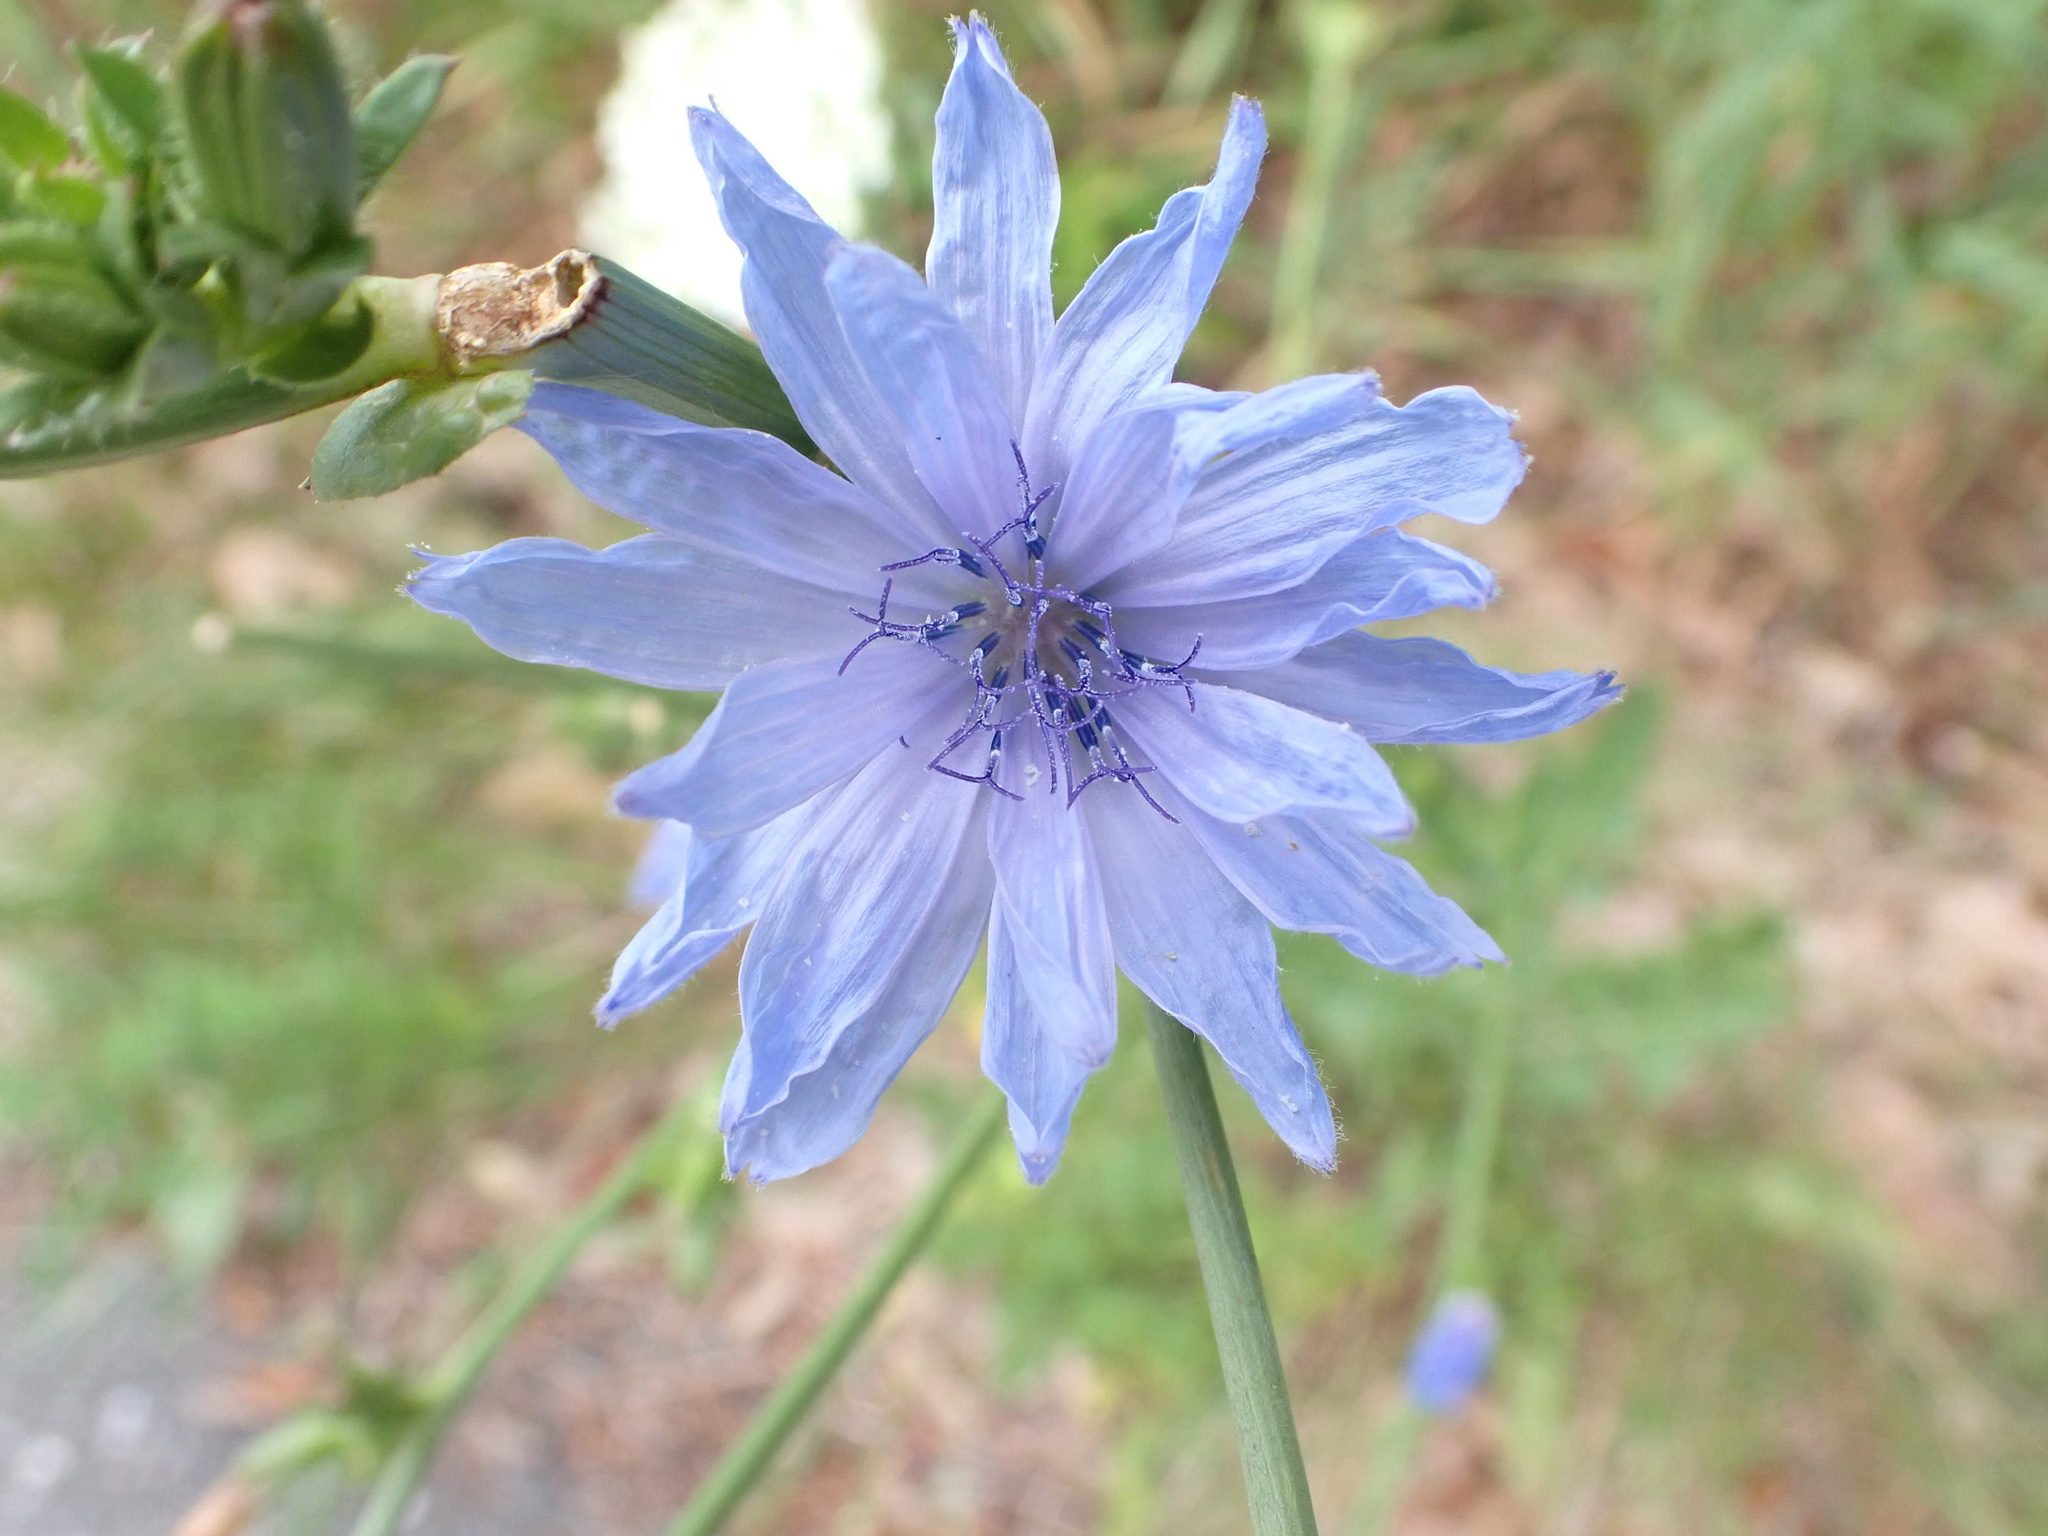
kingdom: Plantae
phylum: Tracheophyta
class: Magnoliopsida
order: Asterales
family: Asteraceae
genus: Cichorium
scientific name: Cichorium intybus
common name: Chicory
